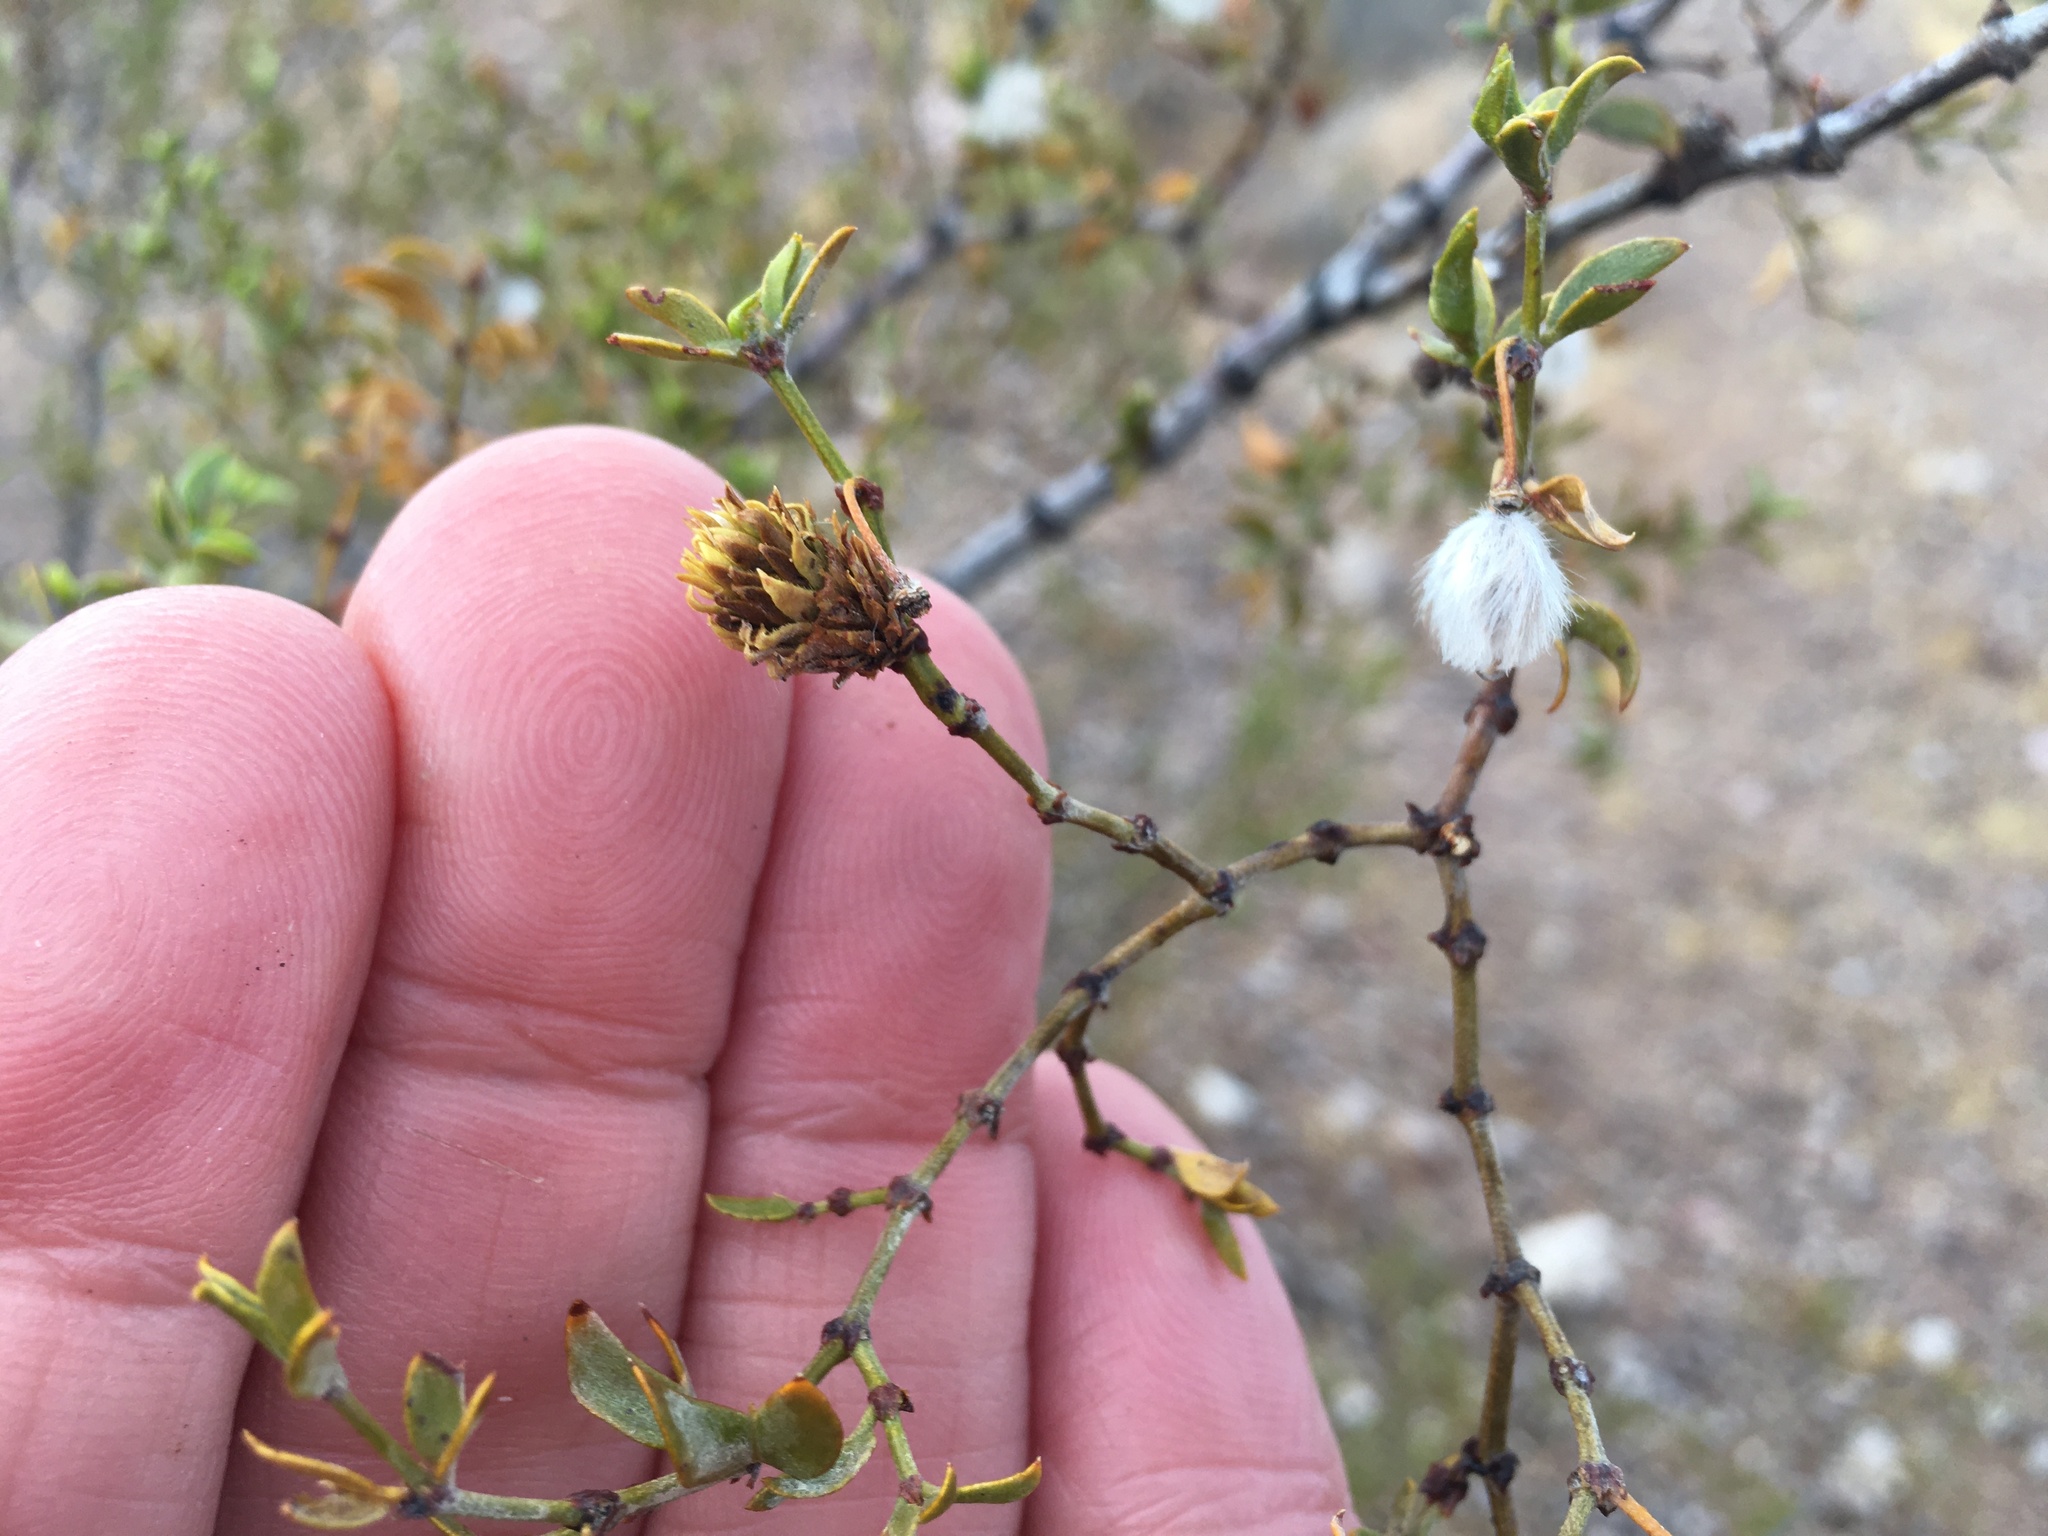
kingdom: Animalia
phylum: Arthropoda
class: Insecta
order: Diptera
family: Cecidomyiidae
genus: Asphondylia
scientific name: Asphondylia rosetta
